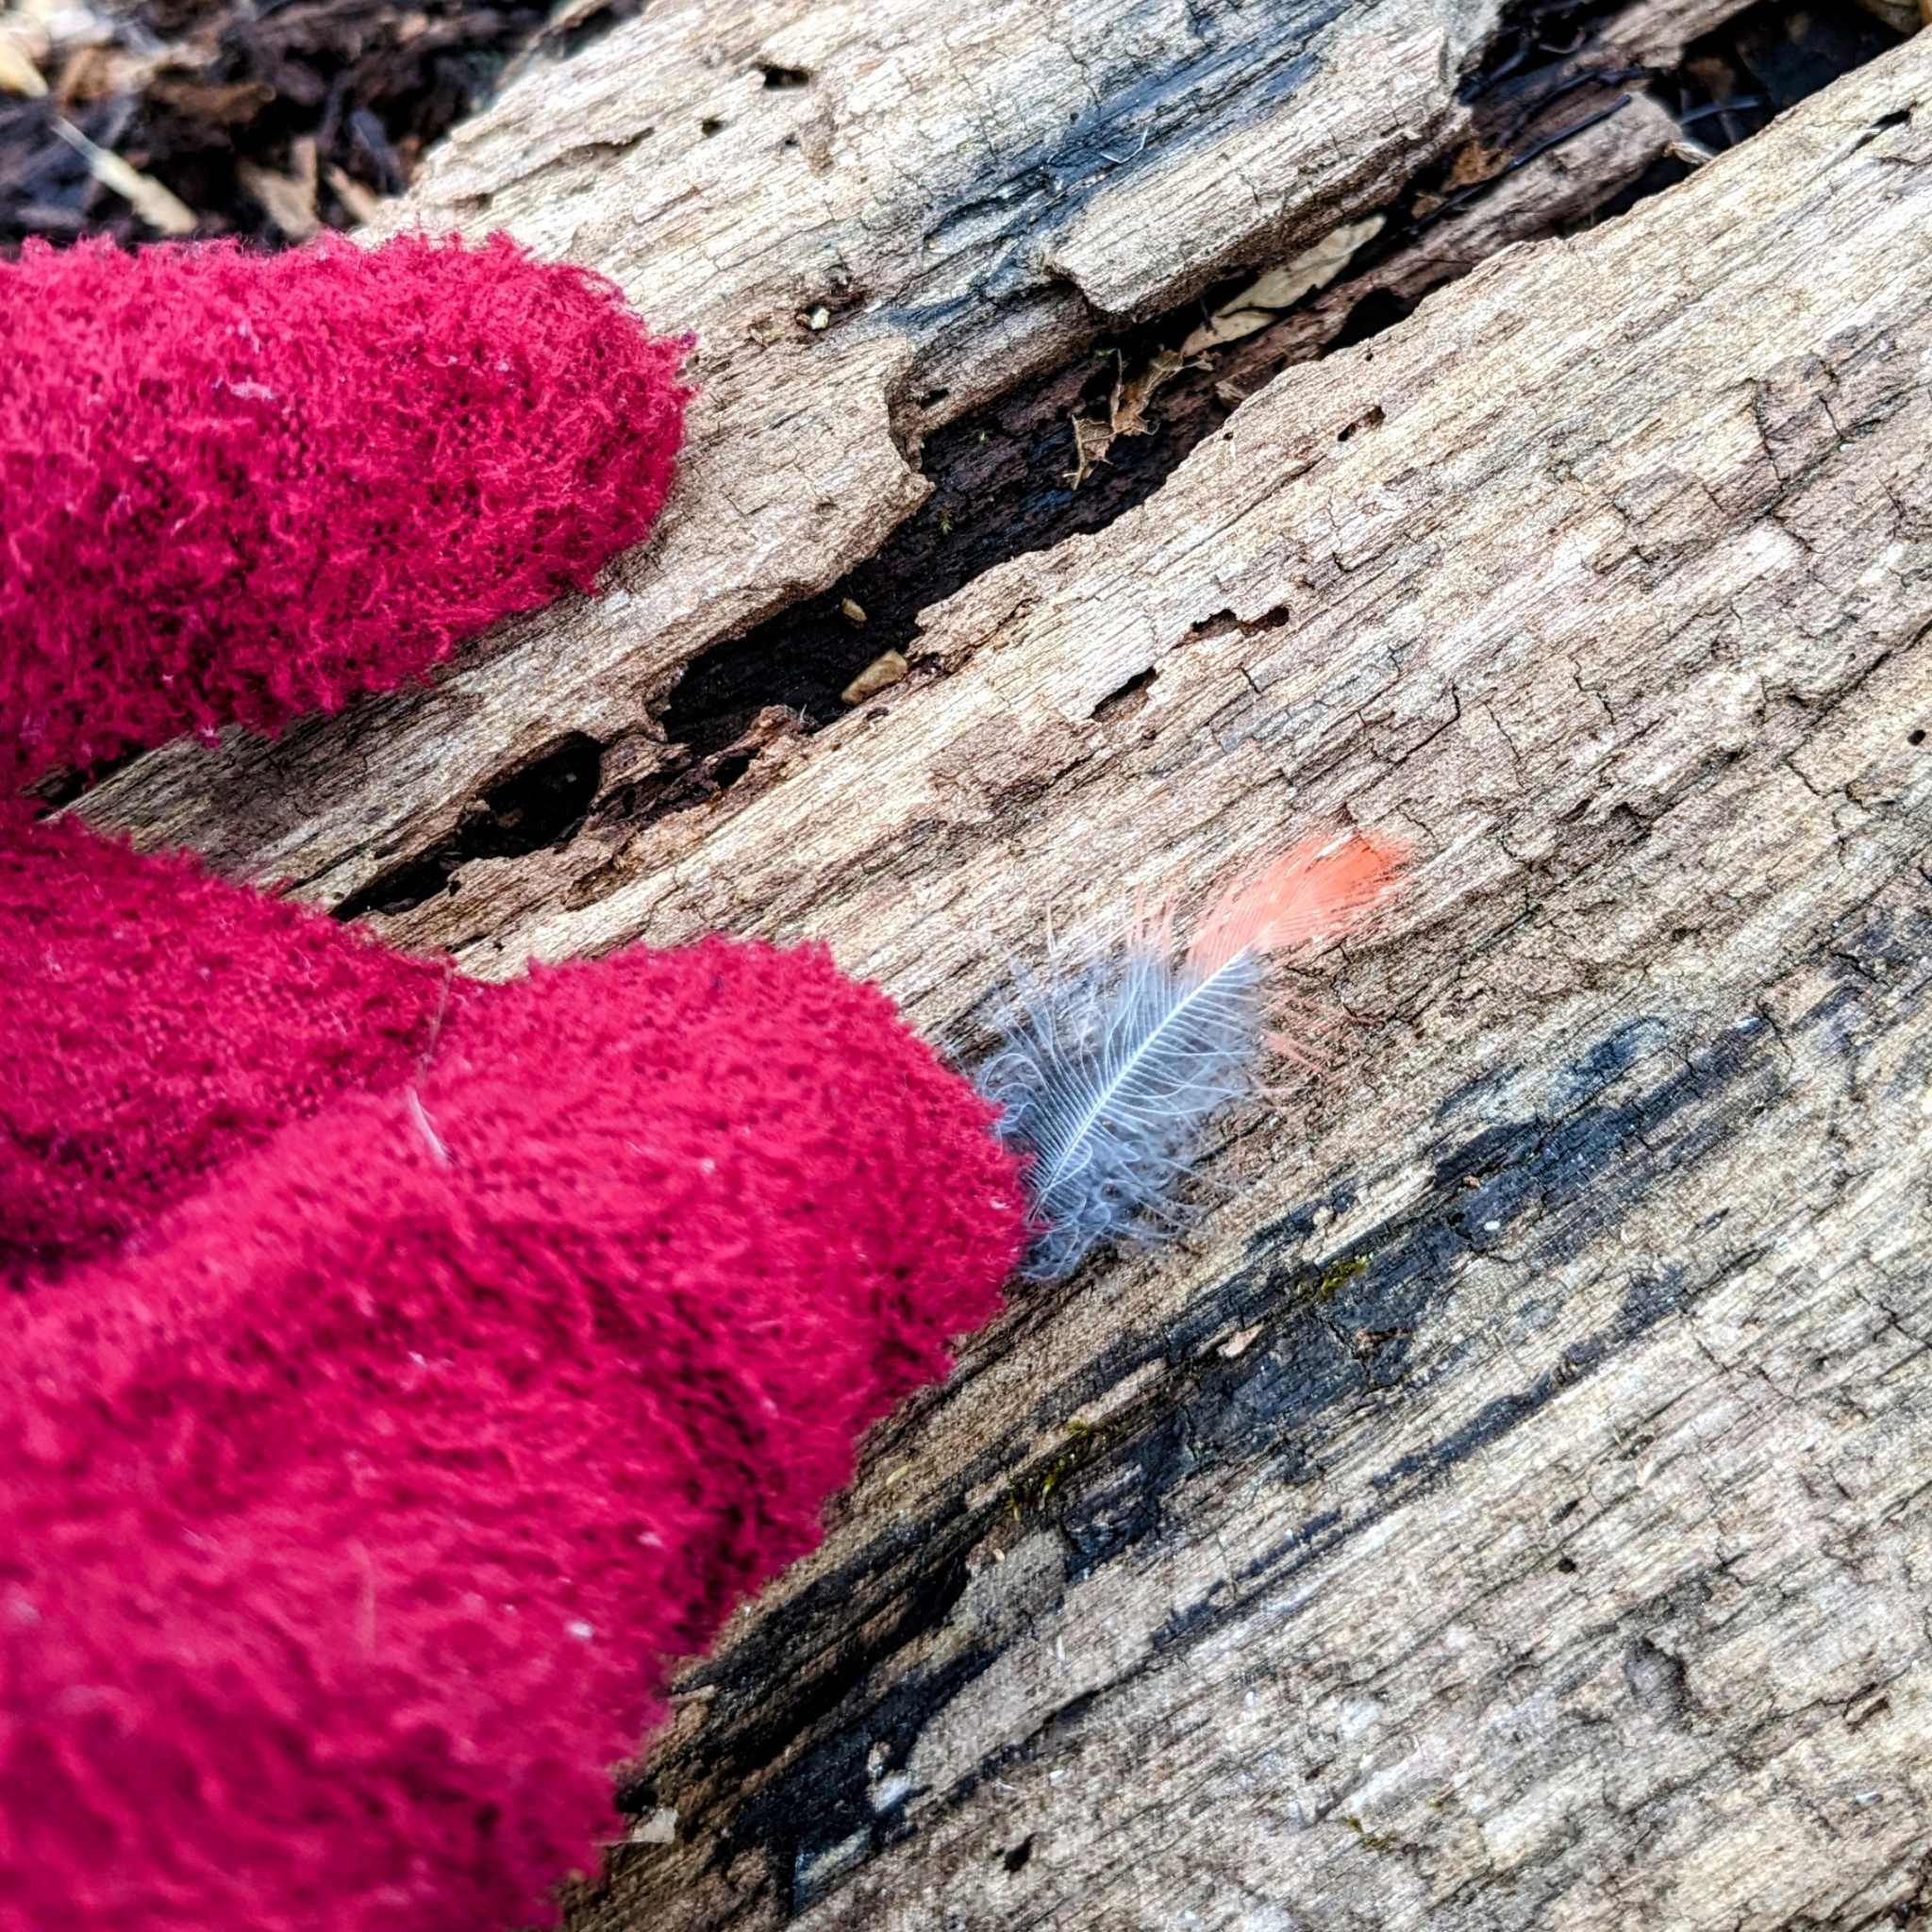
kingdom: Animalia
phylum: Chordata
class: Aves
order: Passeriformes
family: Cardinalidae
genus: Cardinalis
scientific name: Cardinalis cardinalis
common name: Northern cardinal
